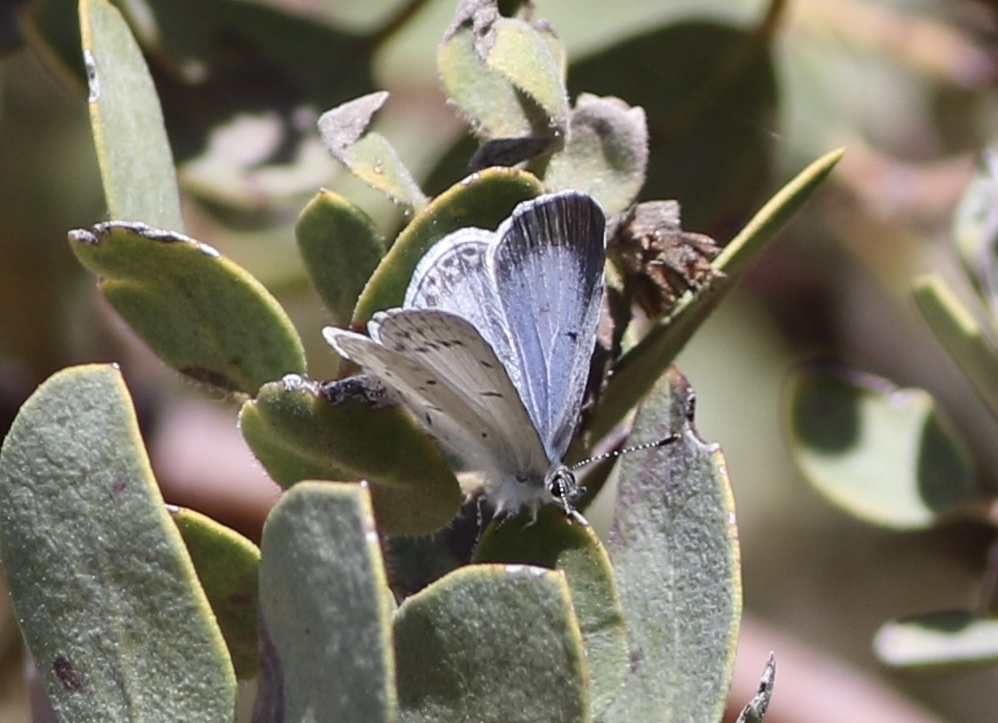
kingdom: Animalia
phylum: Arthropoda
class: Insecta
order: Lepidoptera
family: Lycaenidae
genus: Celastrina
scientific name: Celastrina ladon
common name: Spring azure
